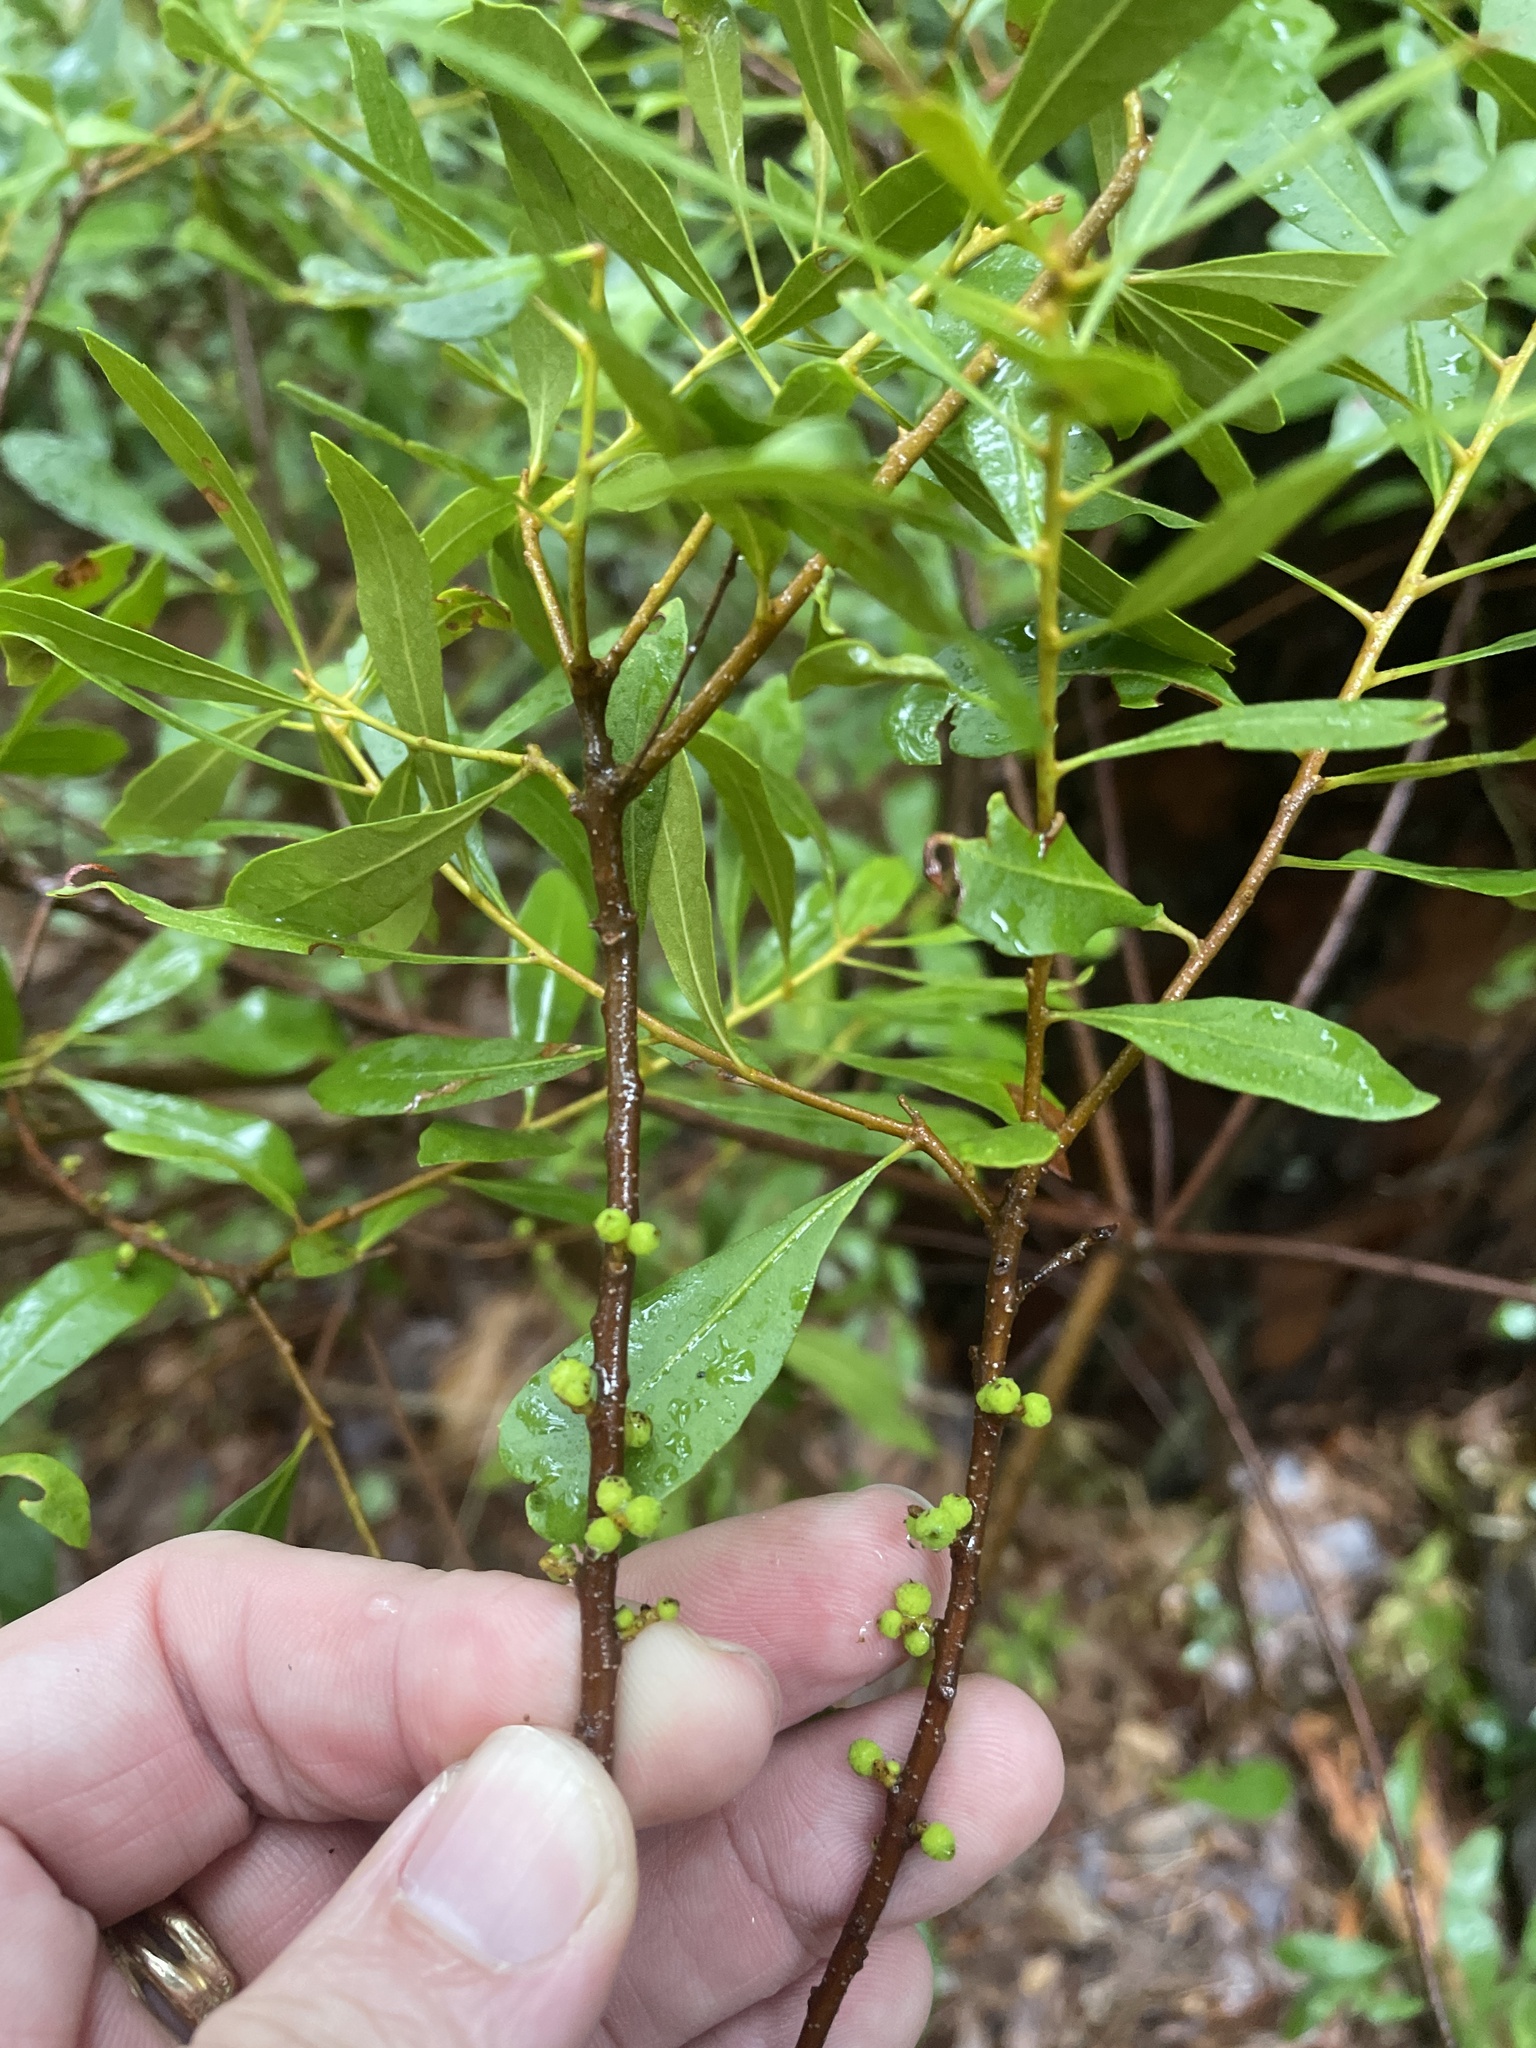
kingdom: Plantae
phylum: Tracheophyta
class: Magnoliopsida
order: Fagales
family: Myricaceae
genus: Morella
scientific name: Morella cerifera
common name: Wax myrtle
